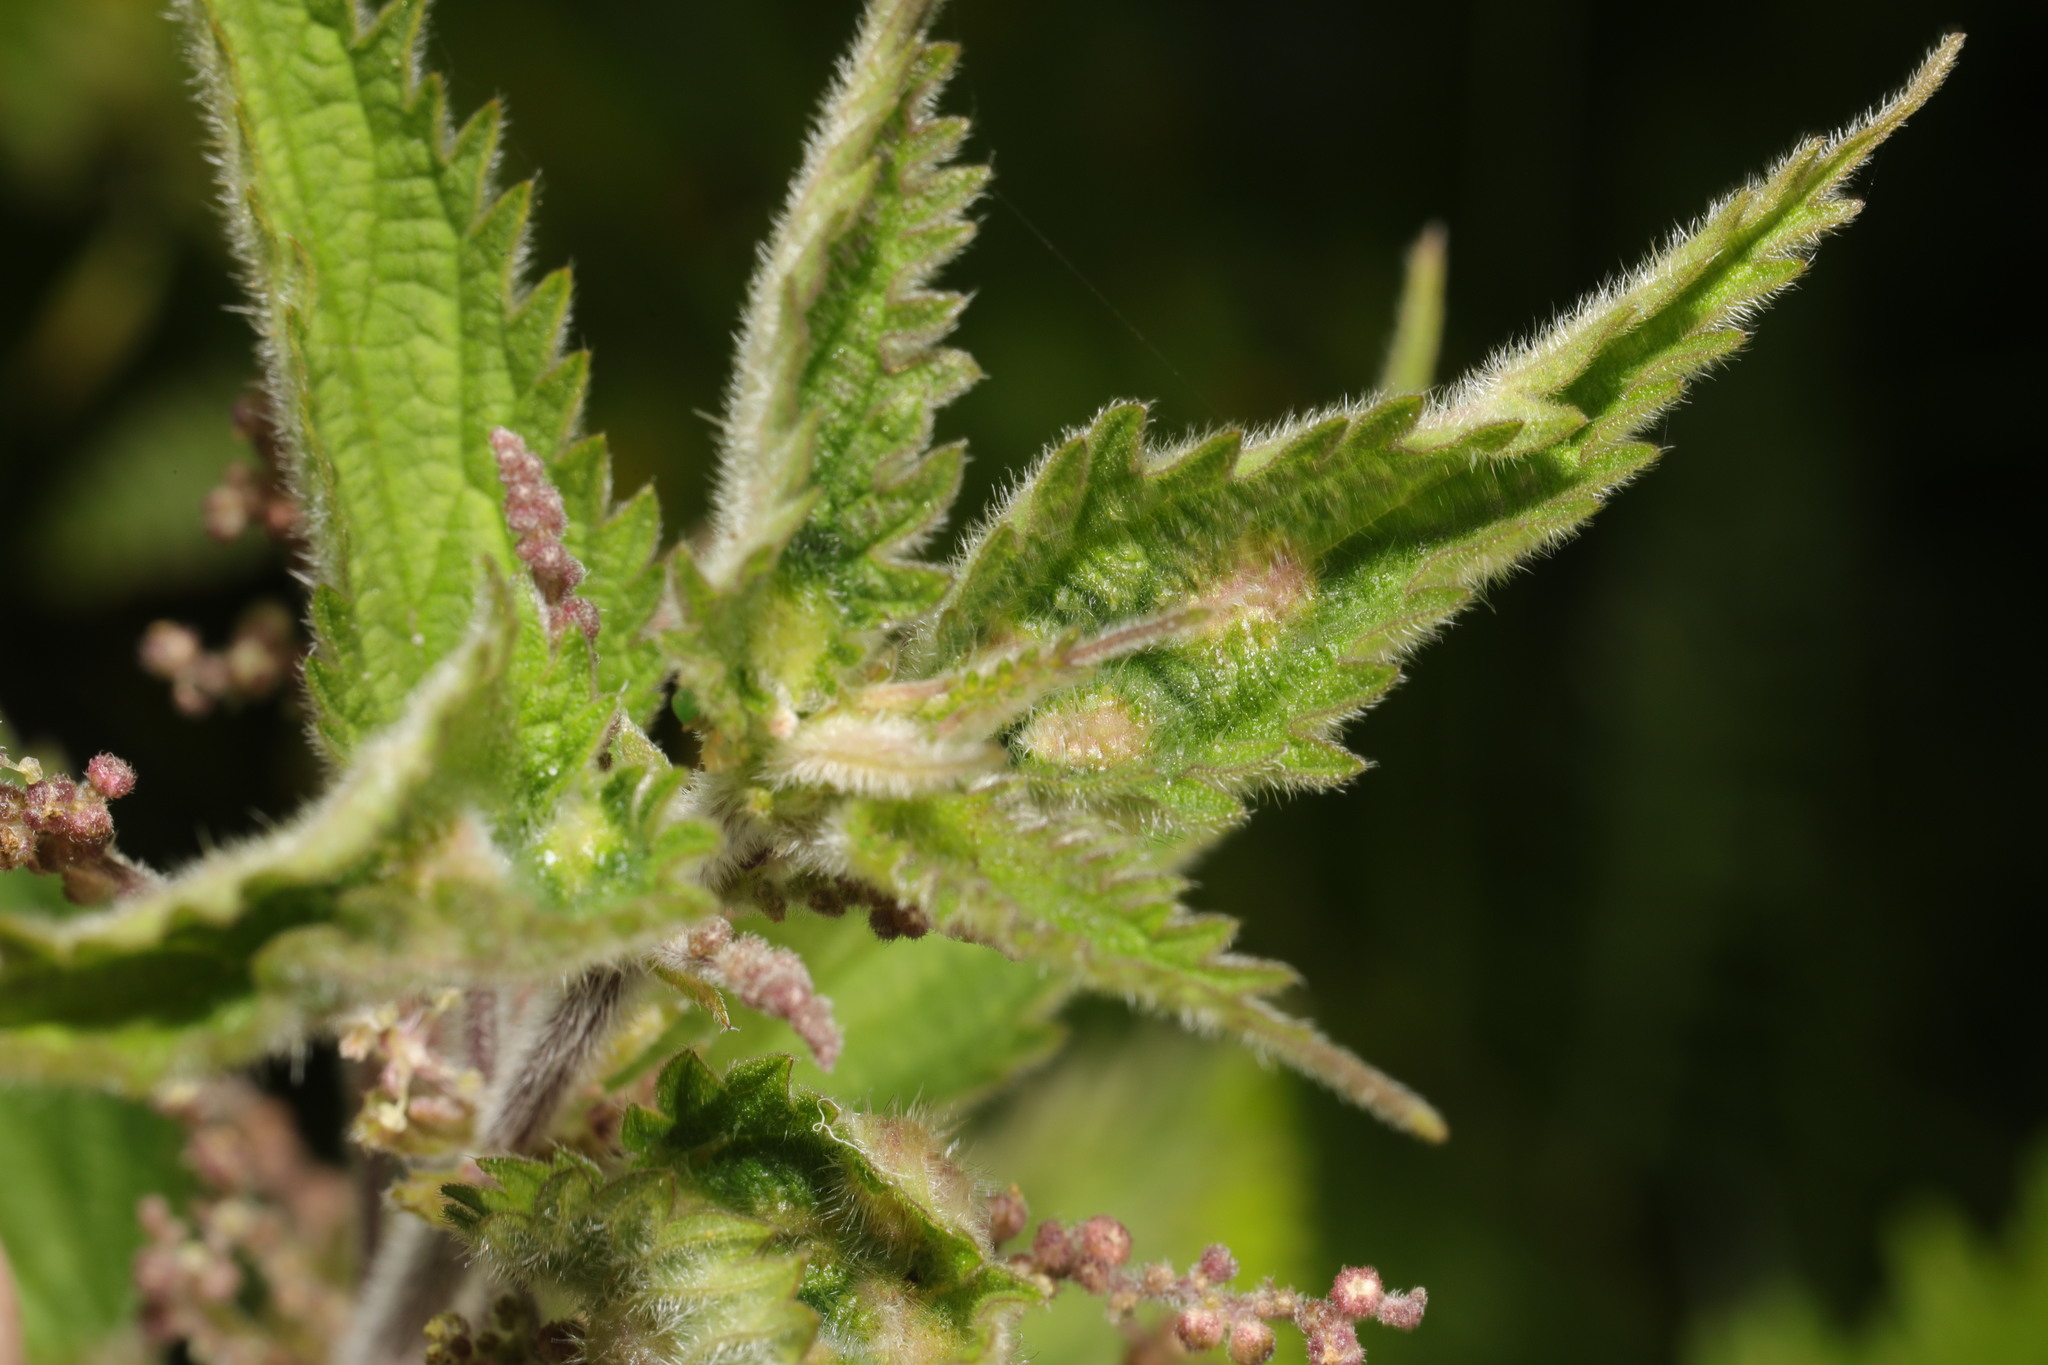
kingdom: Animalia
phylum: Arthropoda
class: Insecta
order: Diptera
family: Cecidomyiidae
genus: Dasineura
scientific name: Dasineura urticae
